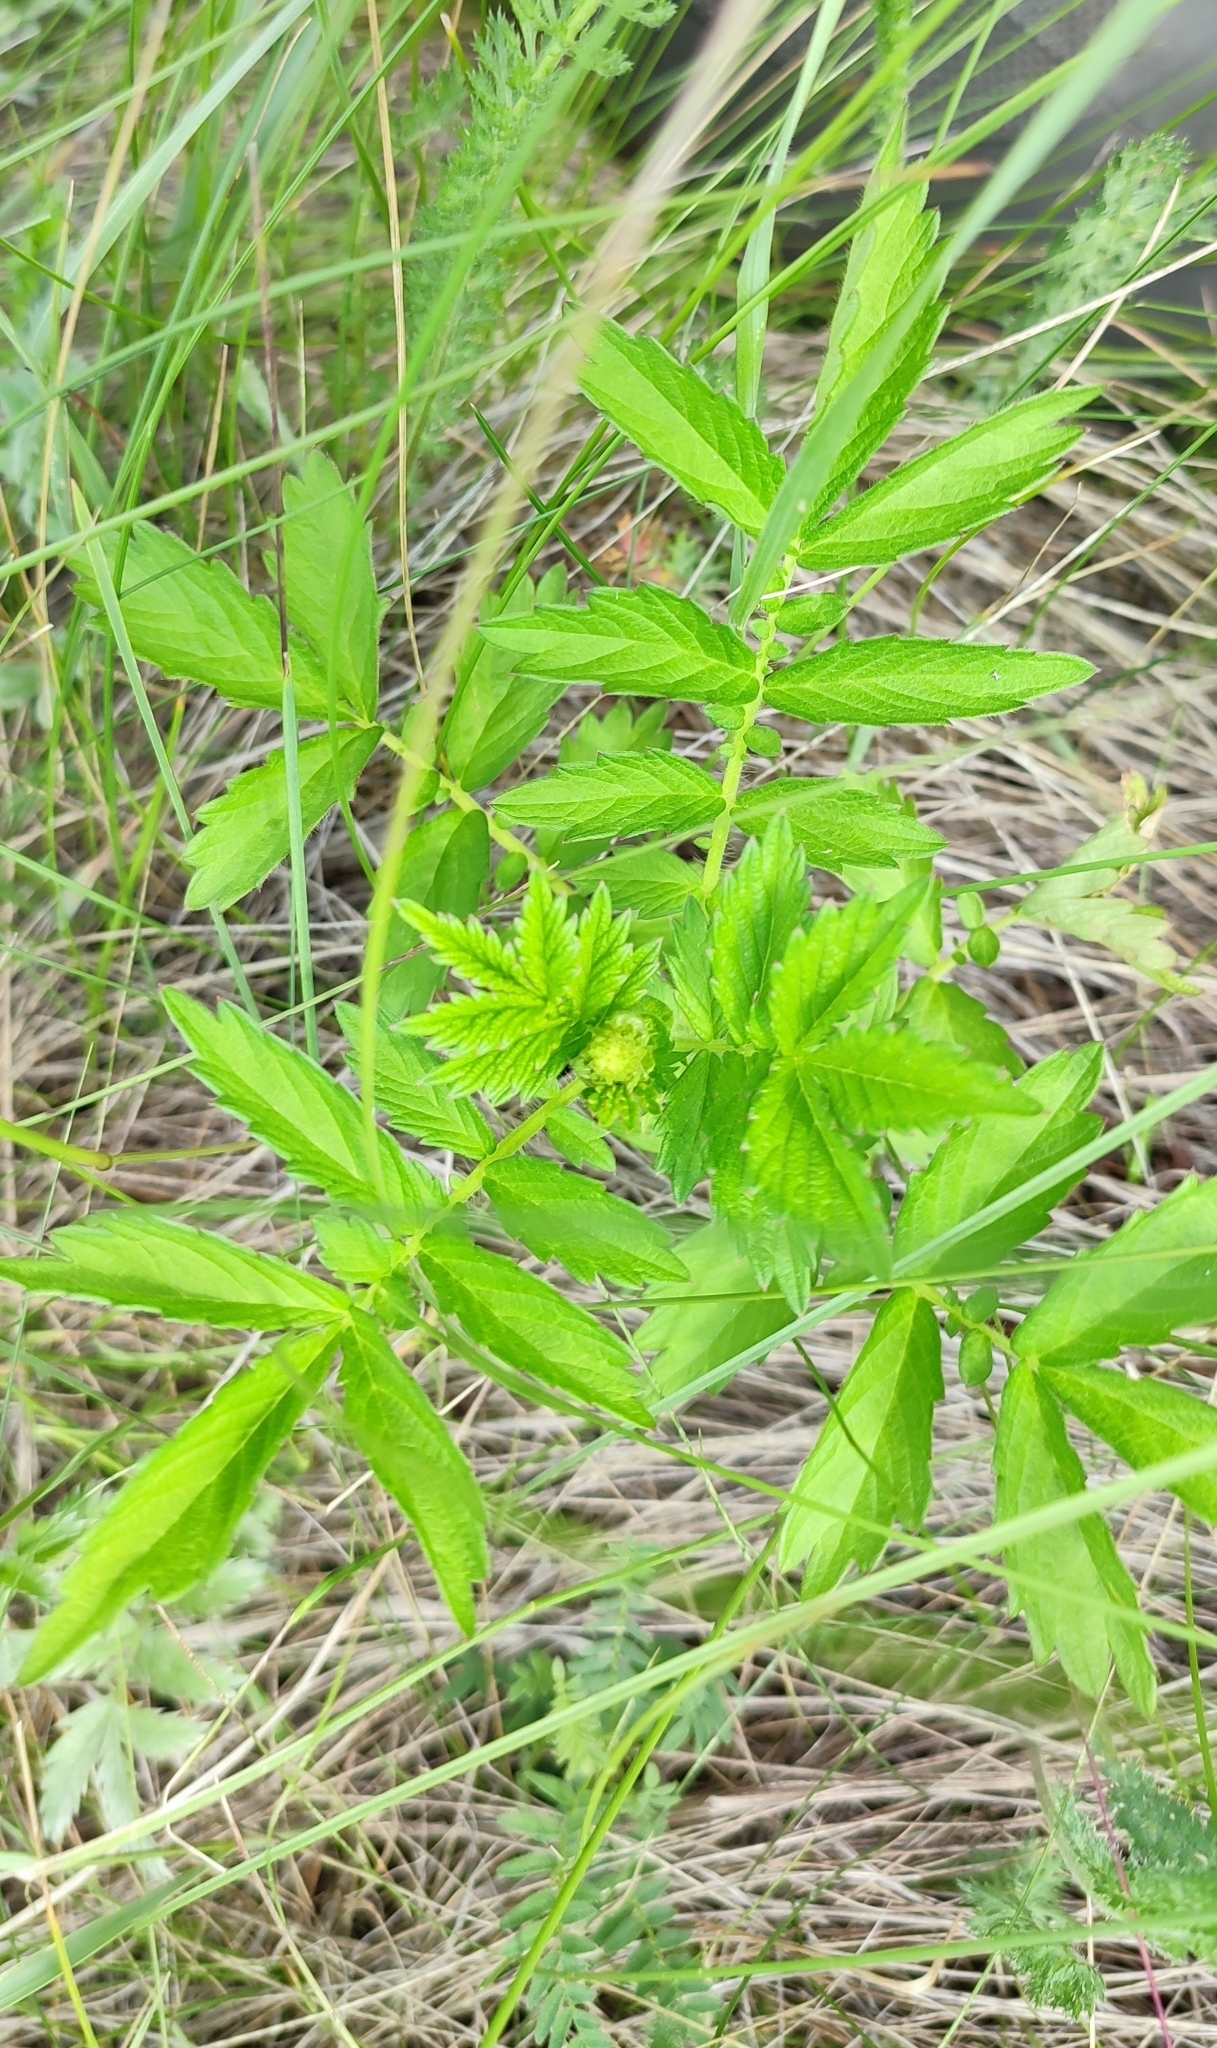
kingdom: Plantae
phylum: Tracheophyta
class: Magnoliopsida
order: Rosales
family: Rosaceae
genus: Agrimonia
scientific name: Agrimonia pilosa
